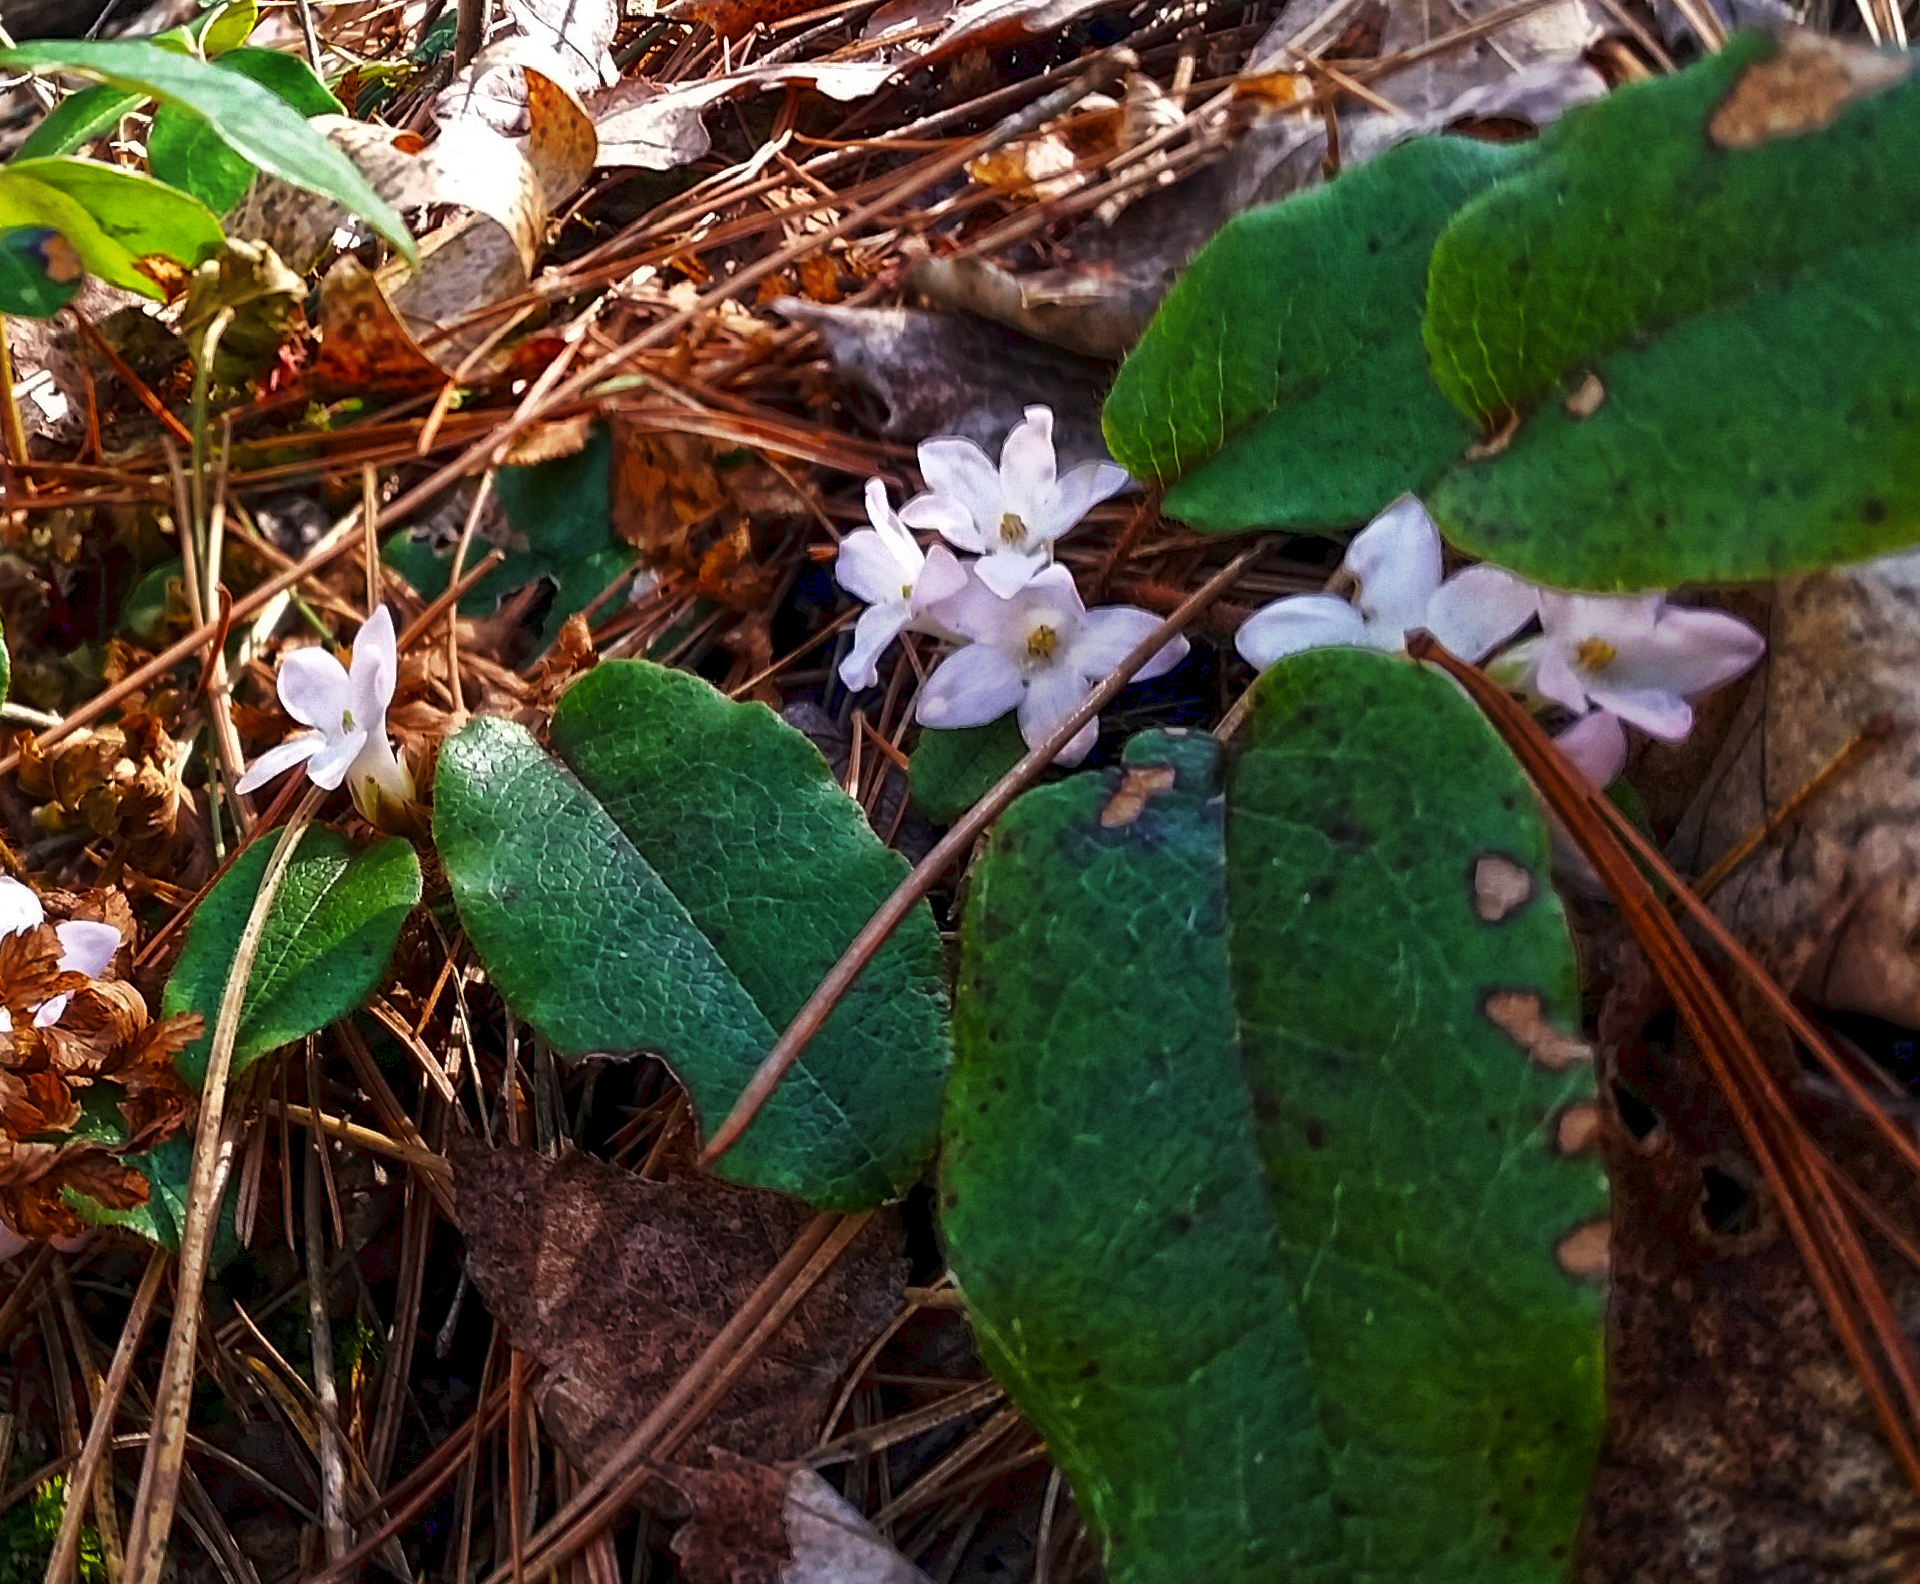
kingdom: Plantae
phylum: Tracheophyta
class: Magnoliopsida
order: Ericales
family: Ericaceae
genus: Epigaea
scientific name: Epigaea repens
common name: Gravelroot
